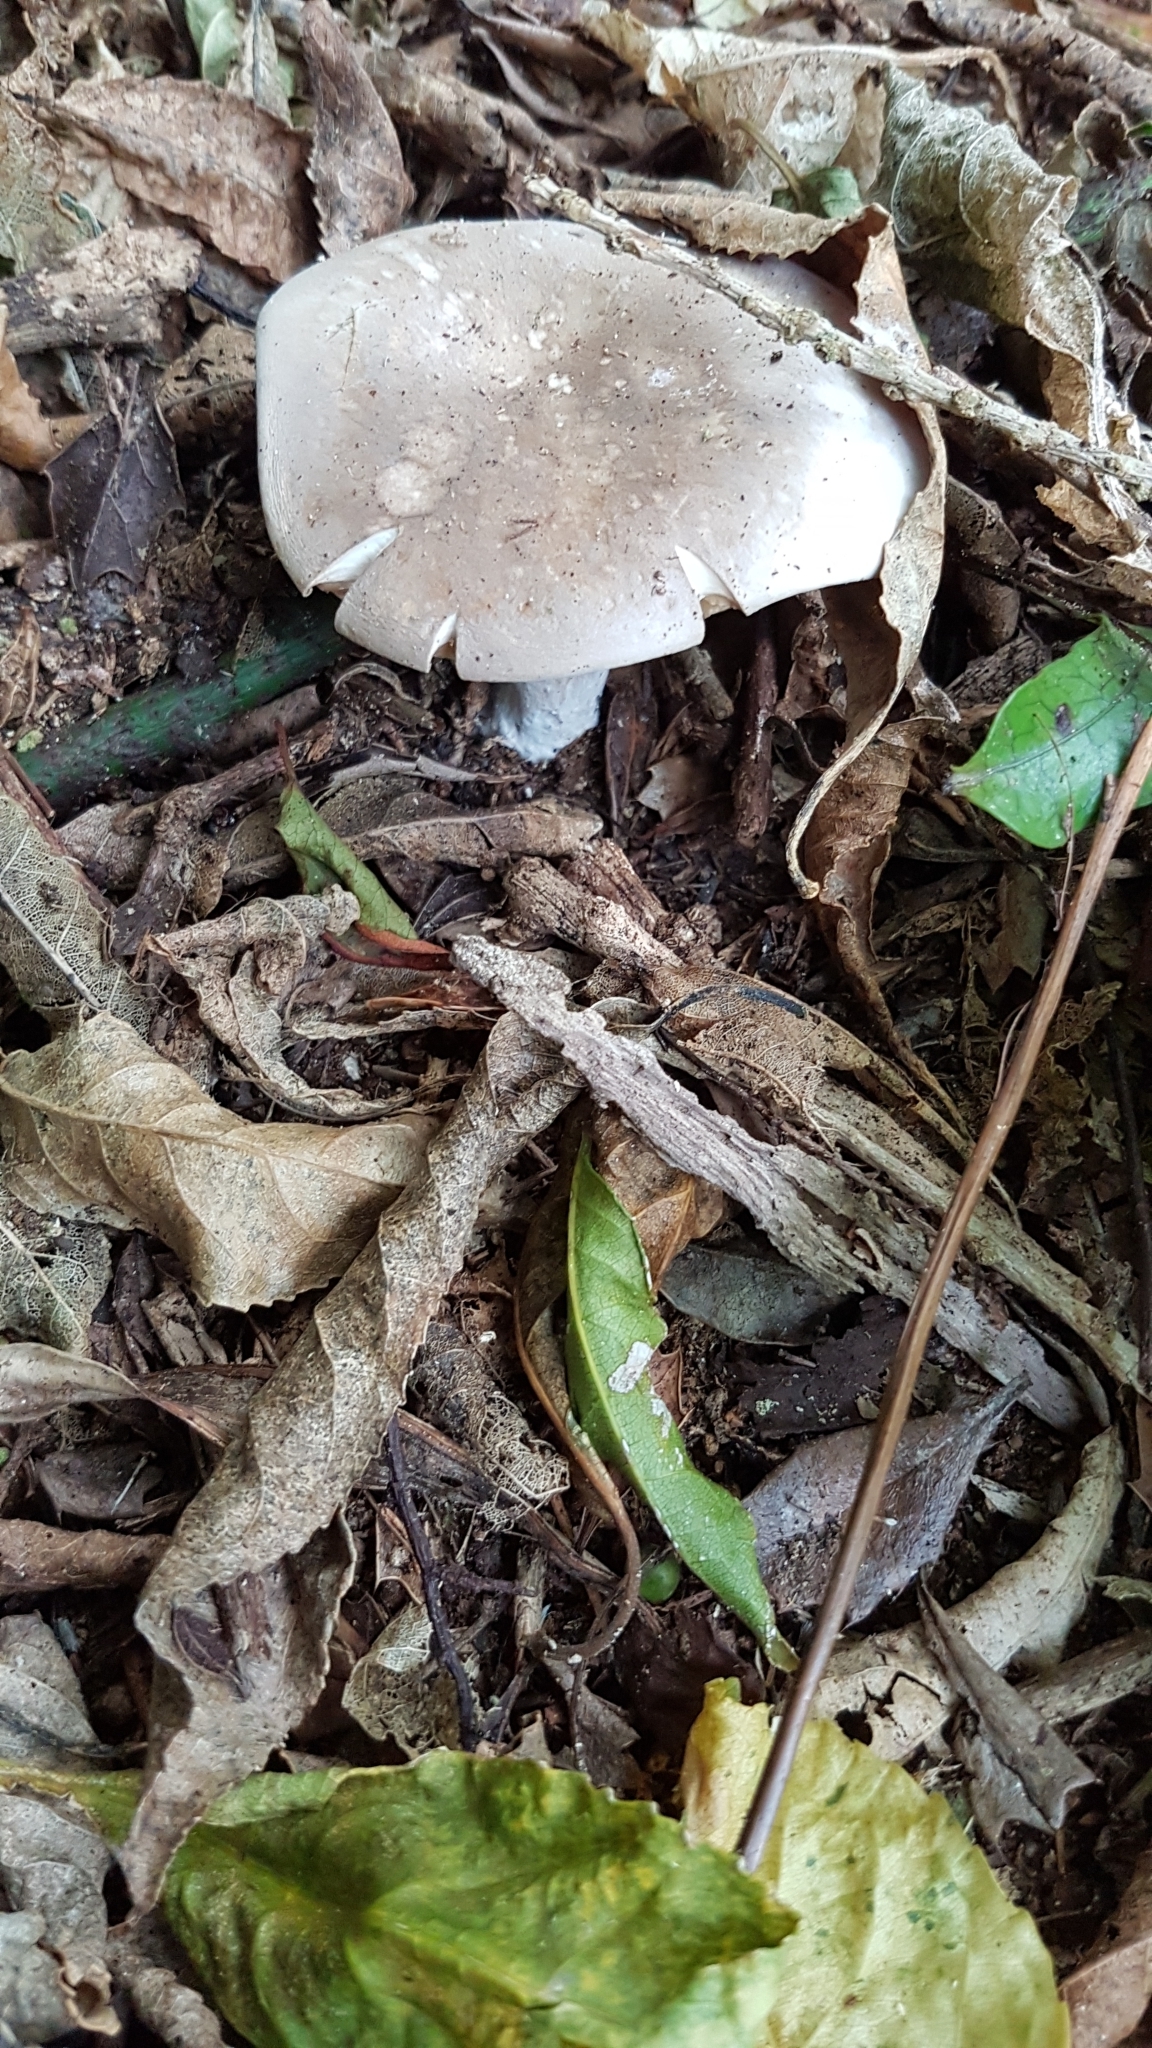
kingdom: Fungi
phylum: Basidiomycota
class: Agaricomycetes
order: Agaricales
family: Tricholomataceae
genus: Clitocybe
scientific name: Clitocybe nebularis
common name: Clouded agaric
